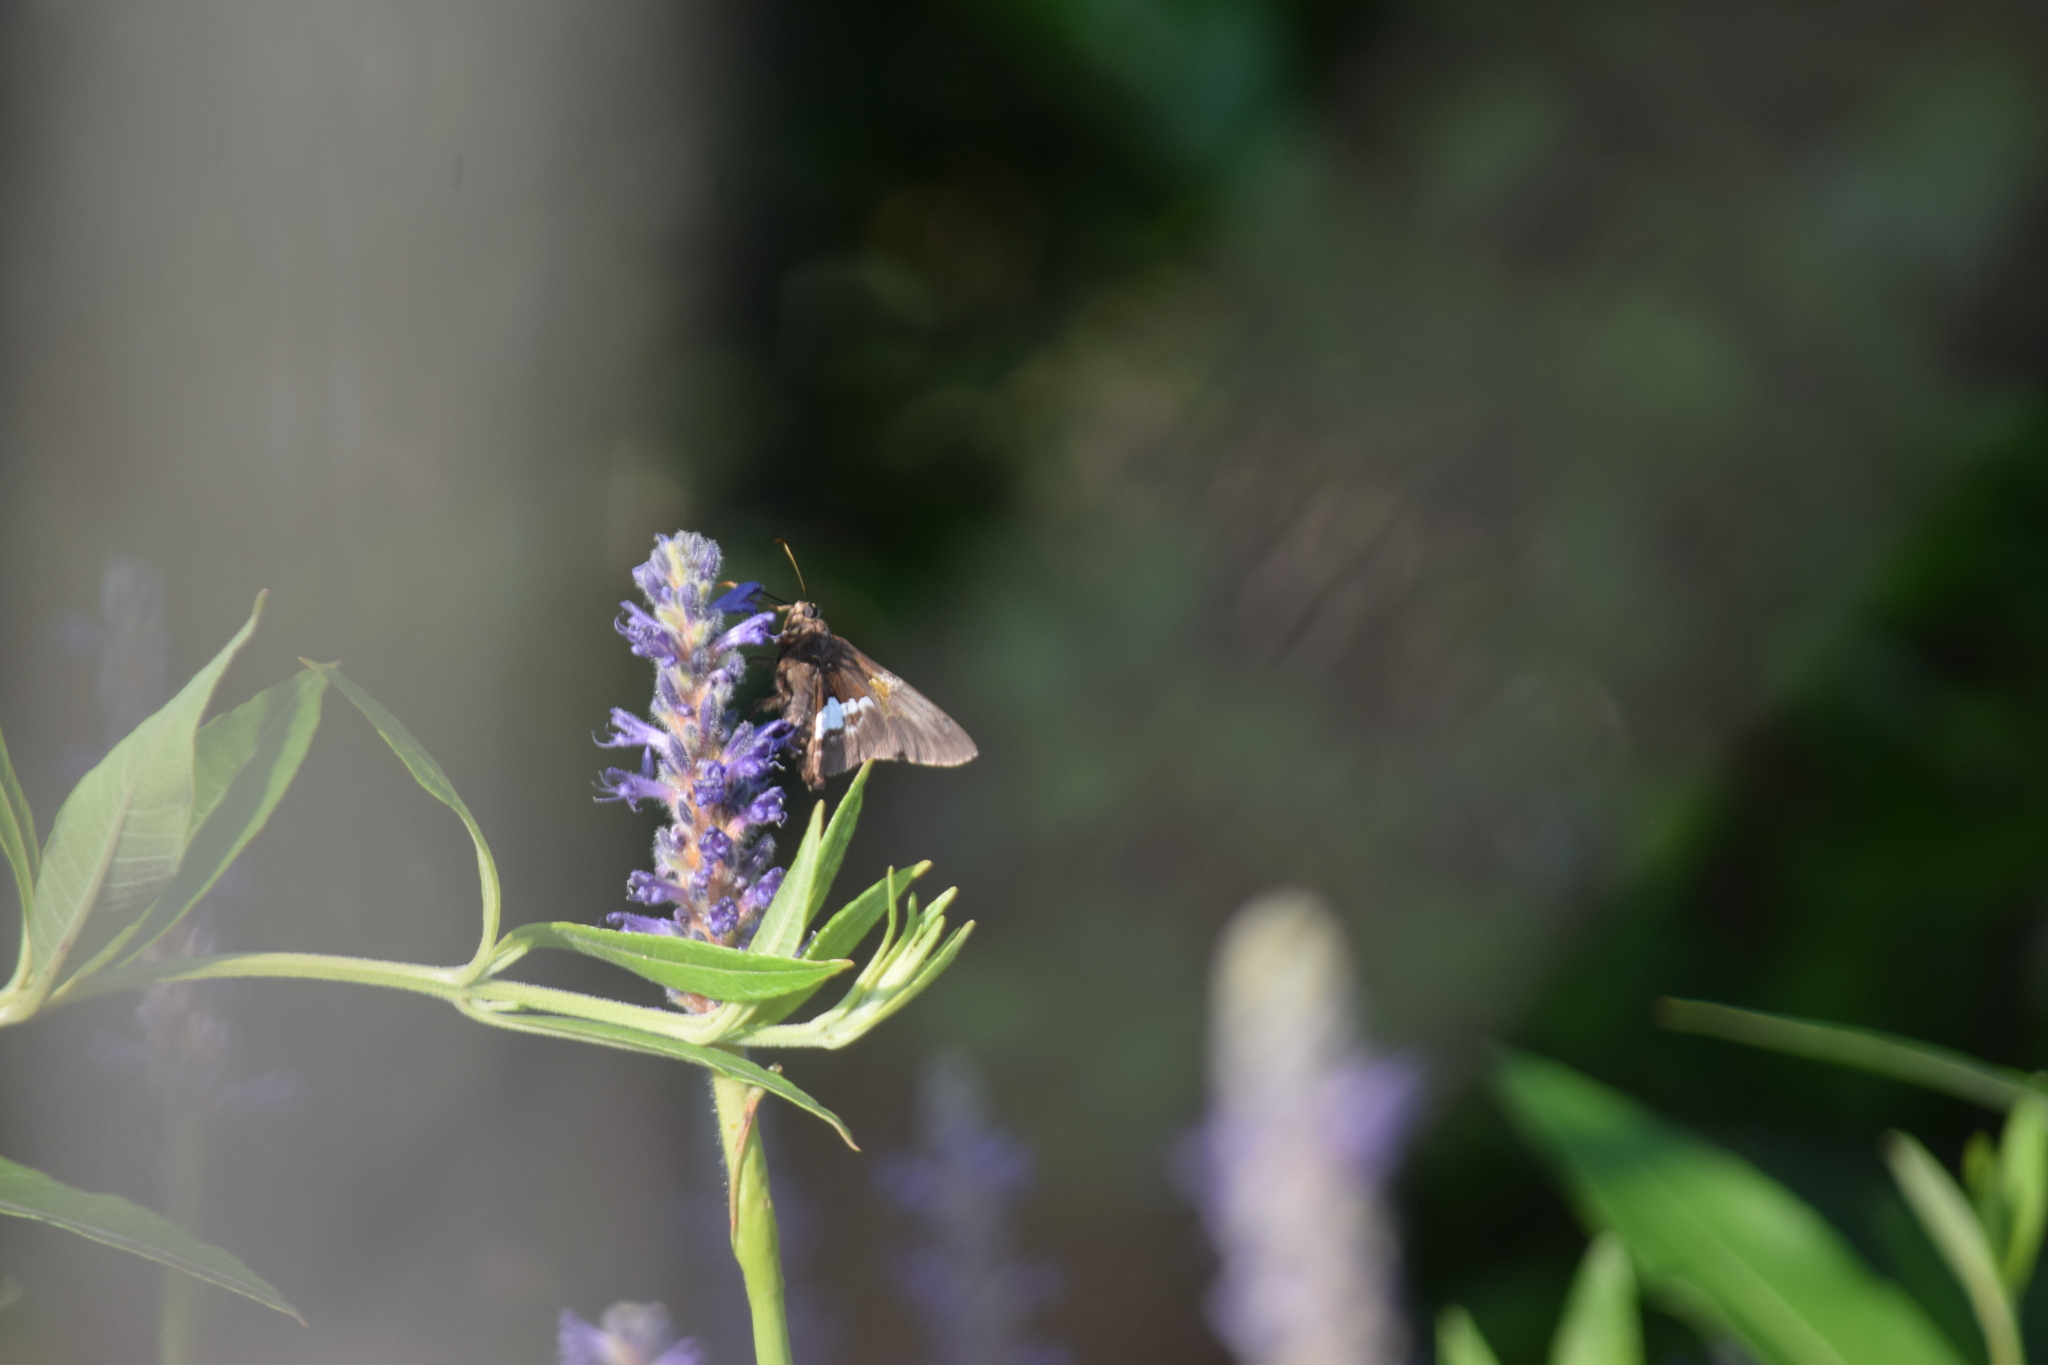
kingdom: Animalia
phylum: Arthropoda
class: Insecta
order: Lepidoptera
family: Hesperiidae
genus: Epargyreus
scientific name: Epargyreus clarus
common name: Silver-spotted skipper
